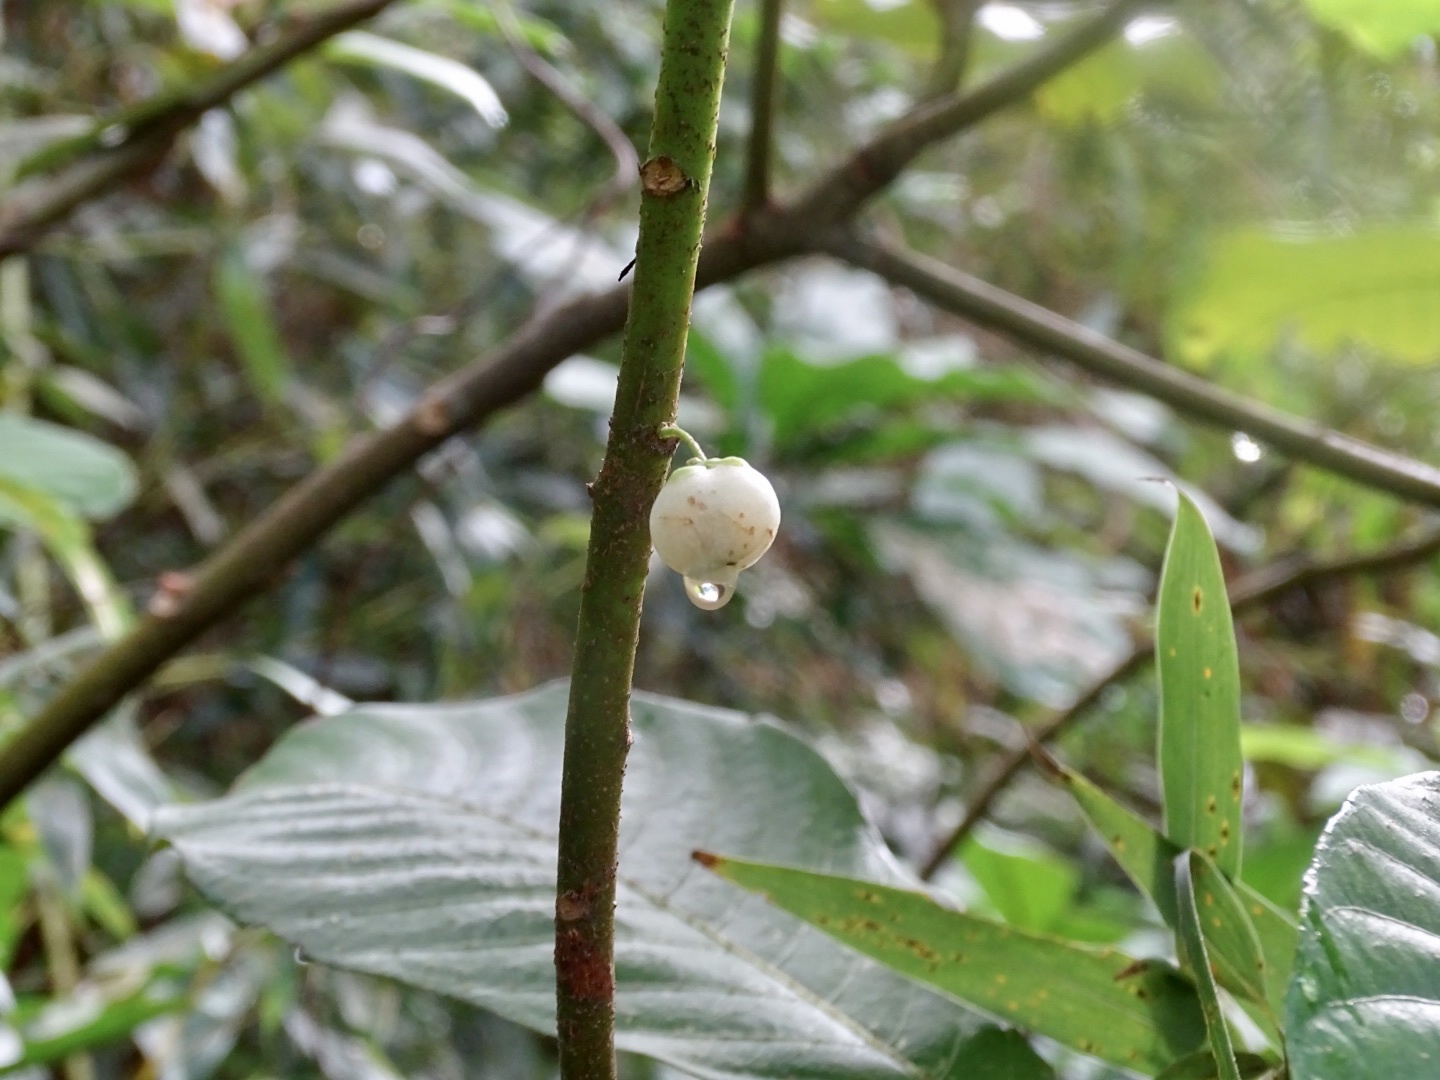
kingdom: Plantae
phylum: Tracheophyta
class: Magnoliopsida
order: Ericales
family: Actinidiaceae
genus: Saurauia
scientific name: Saurauia tristyla
